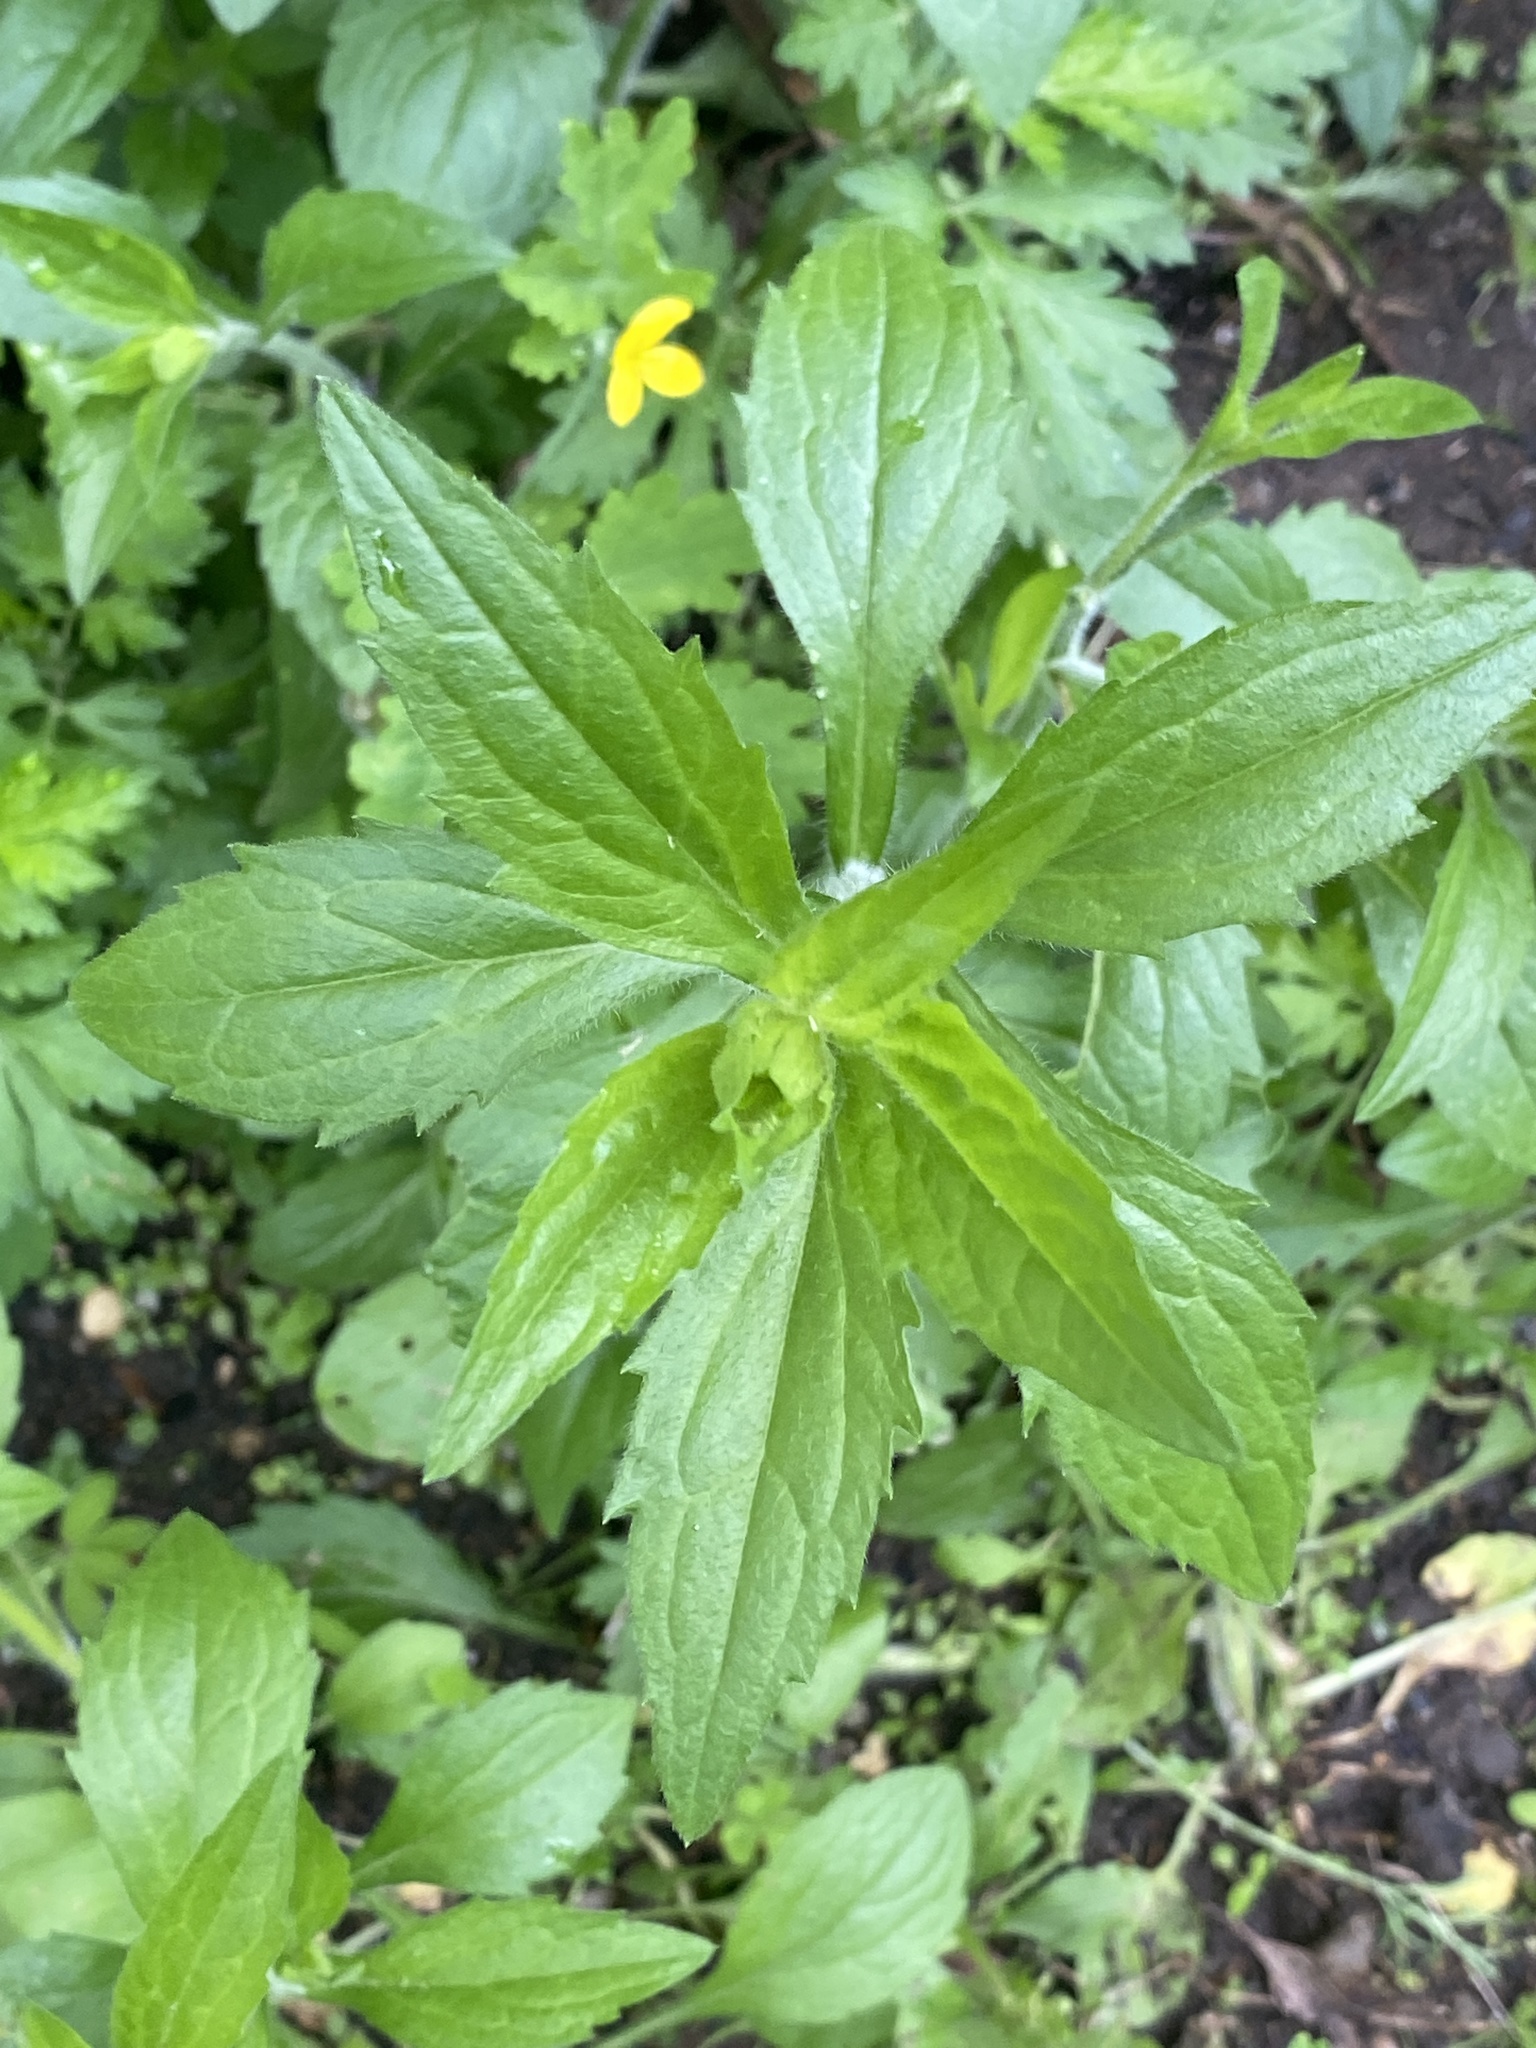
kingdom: Plantae
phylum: Tracheophyta
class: Magnoliopsida
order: Asterales
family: Asteraceae
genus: Erigeron
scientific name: Erigeron annuus
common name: Tall fleabane
